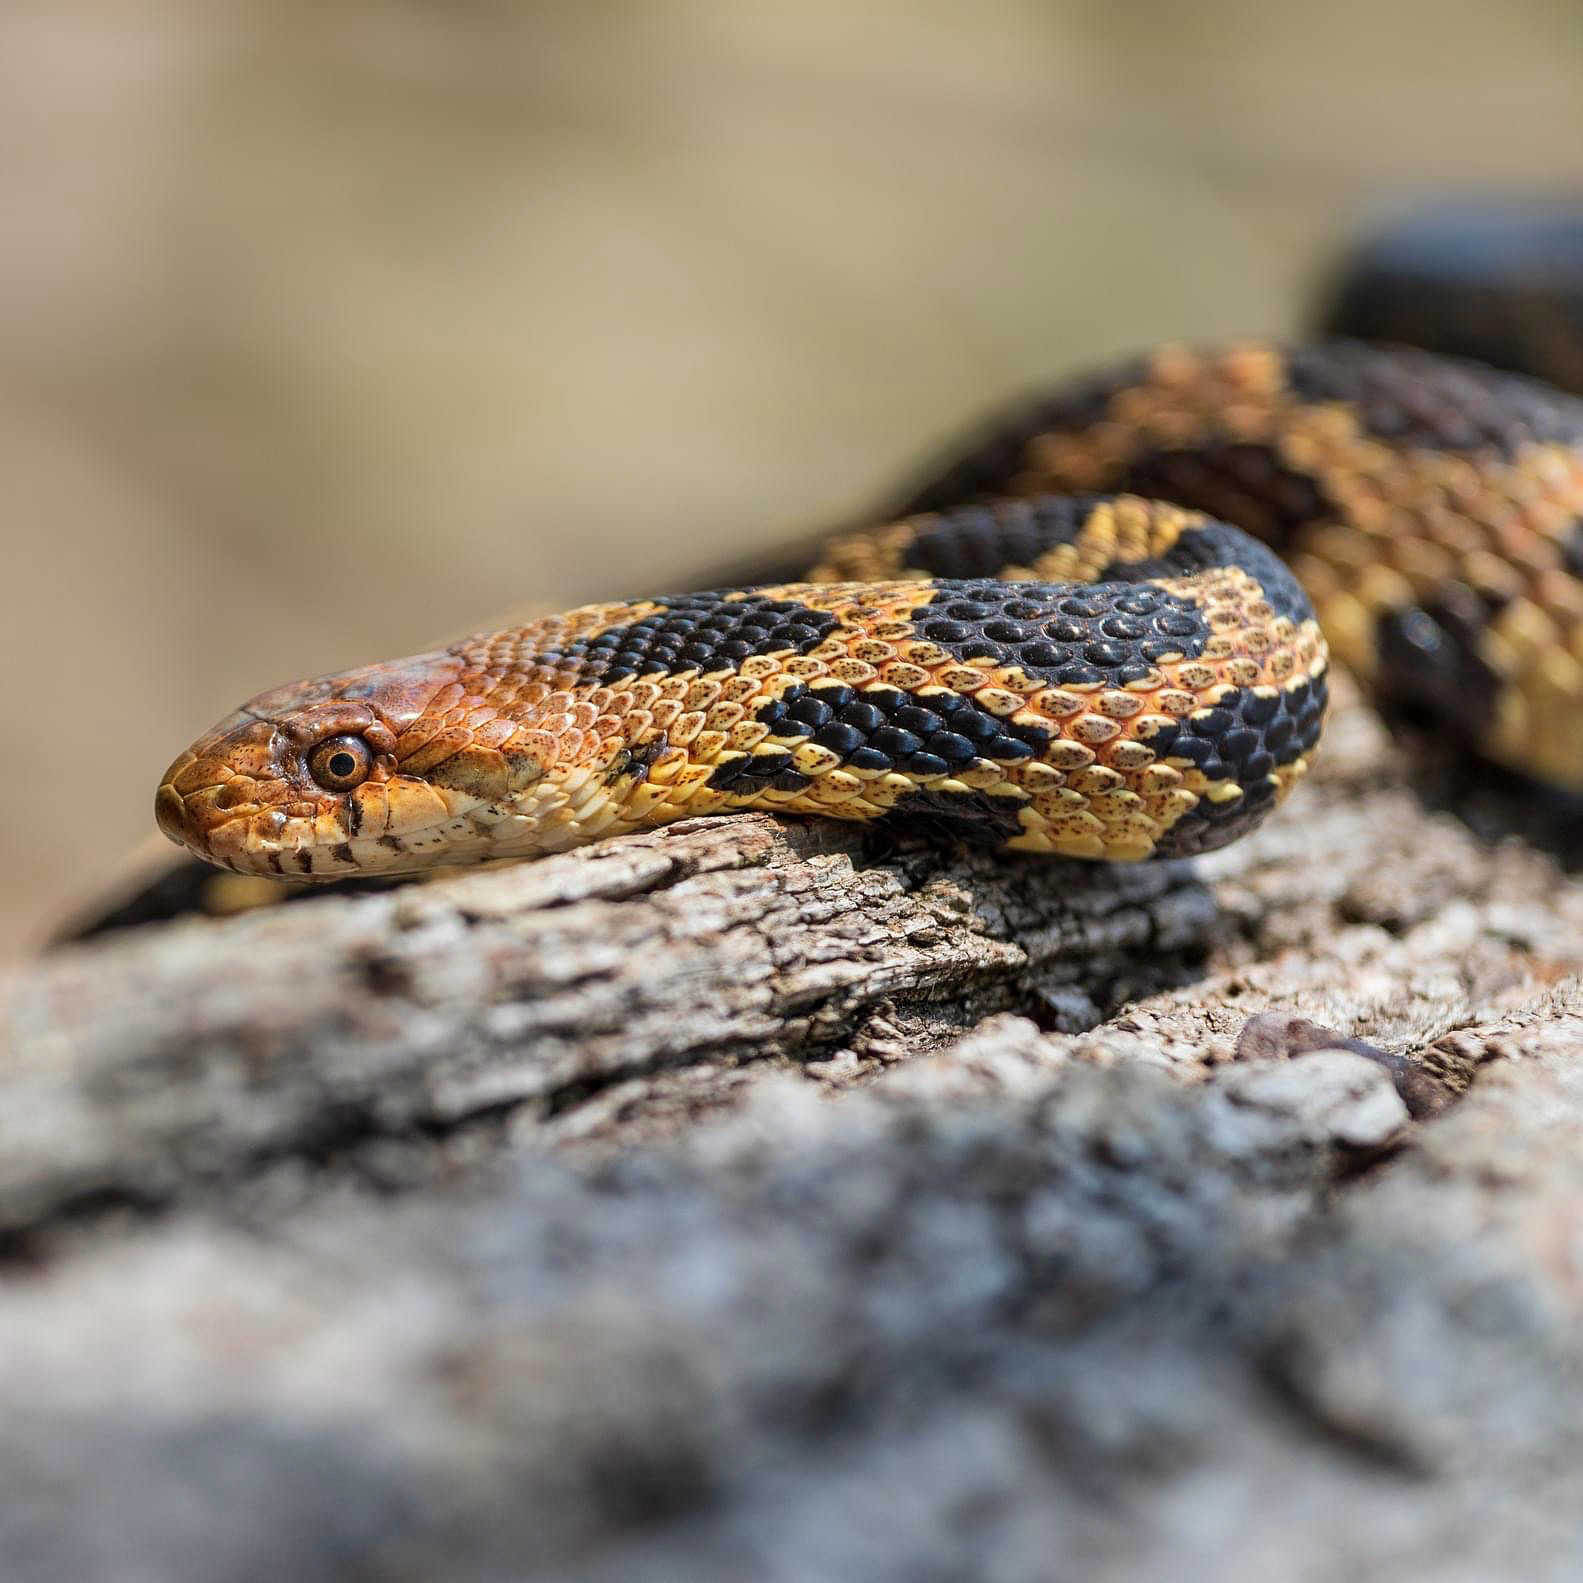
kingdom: Animalia
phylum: Chordata
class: Squamata
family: Colubridae
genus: Pantherophis
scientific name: Pantherophis vulpinus
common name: Eastern fox snake
